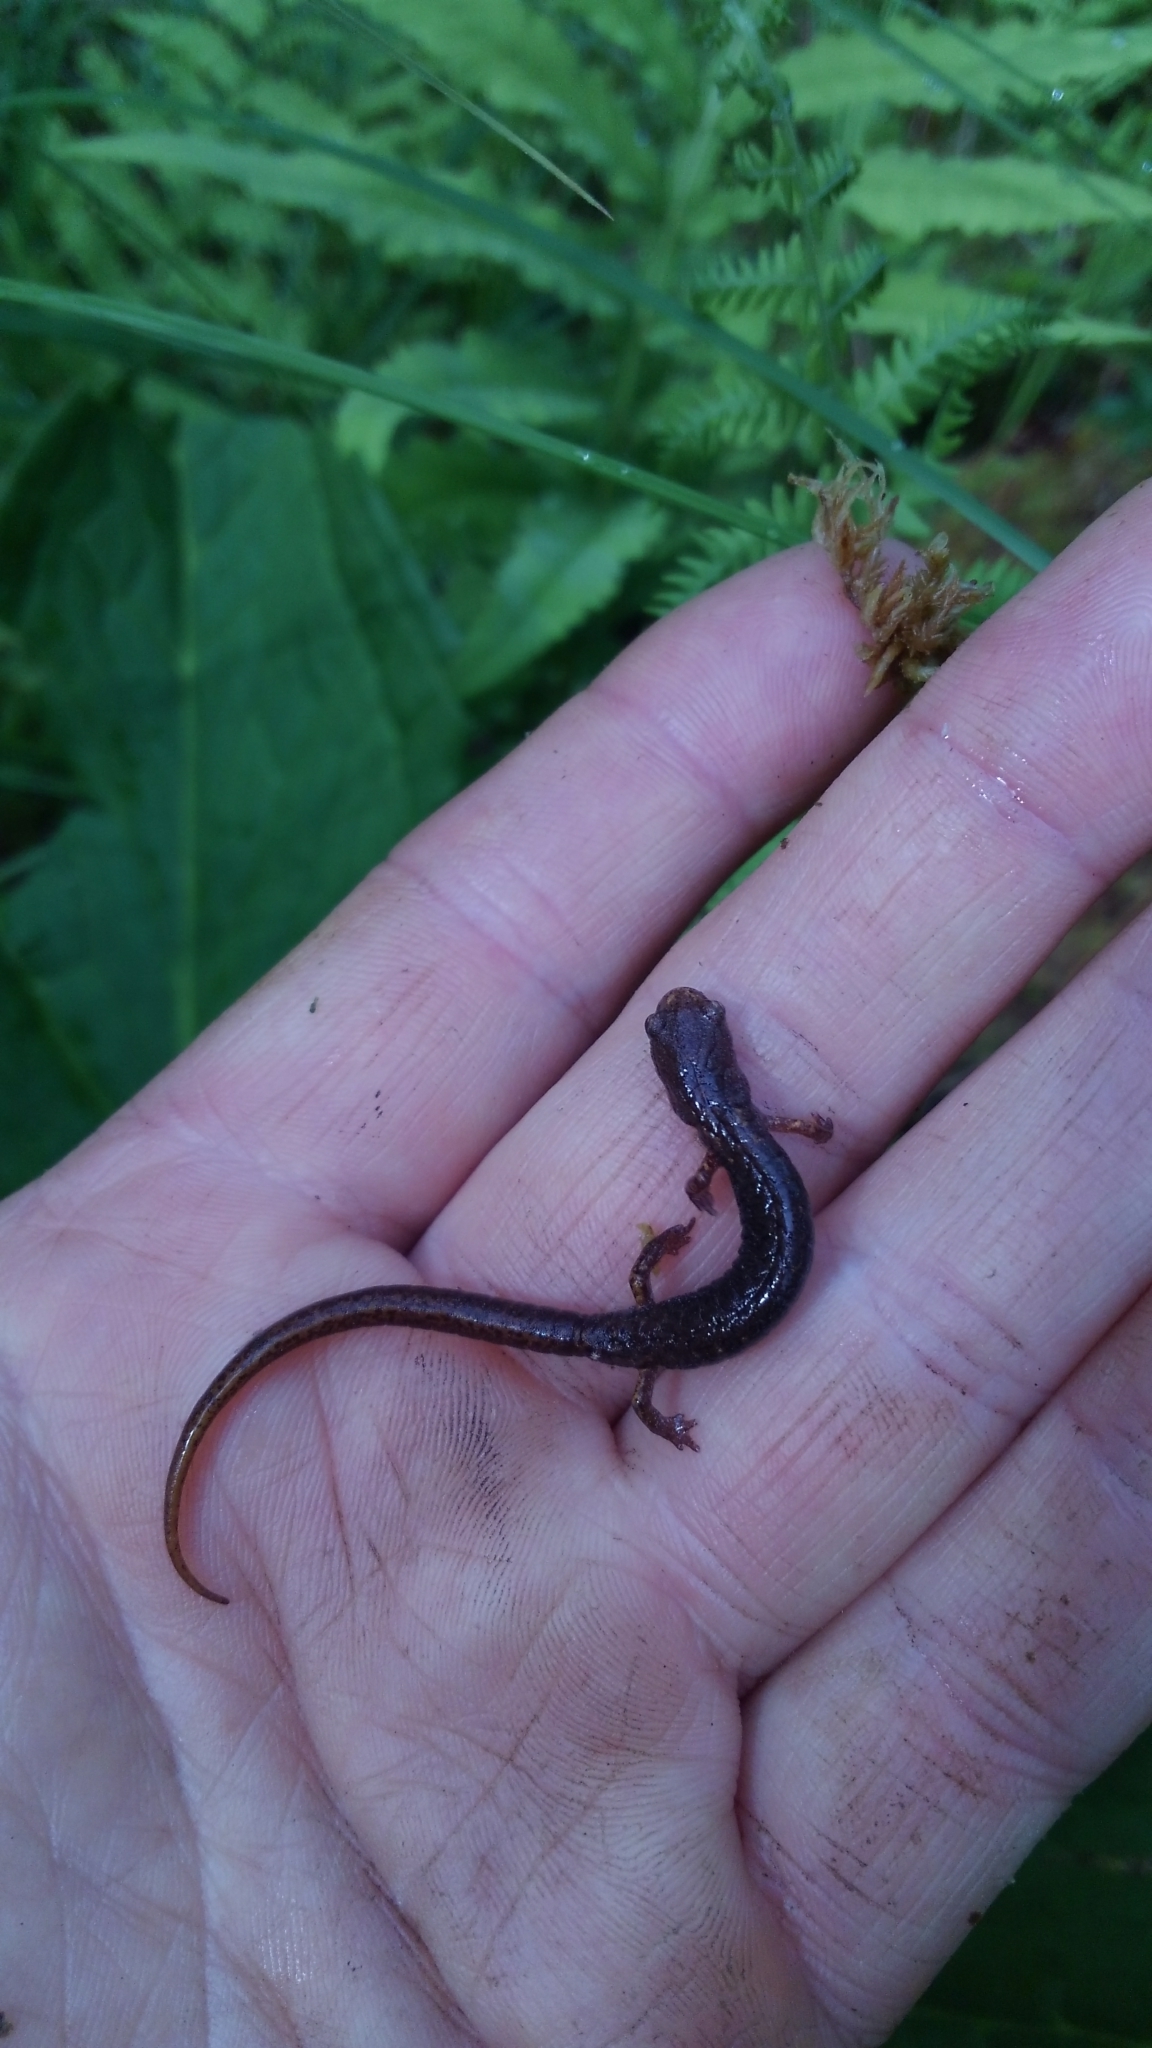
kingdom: Animalia
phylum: Chordata
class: Amphibia
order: Caudata
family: Plethodontidae
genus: Hemidactylium
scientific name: Hemidactylium scutatum
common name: Four-toed salamander
